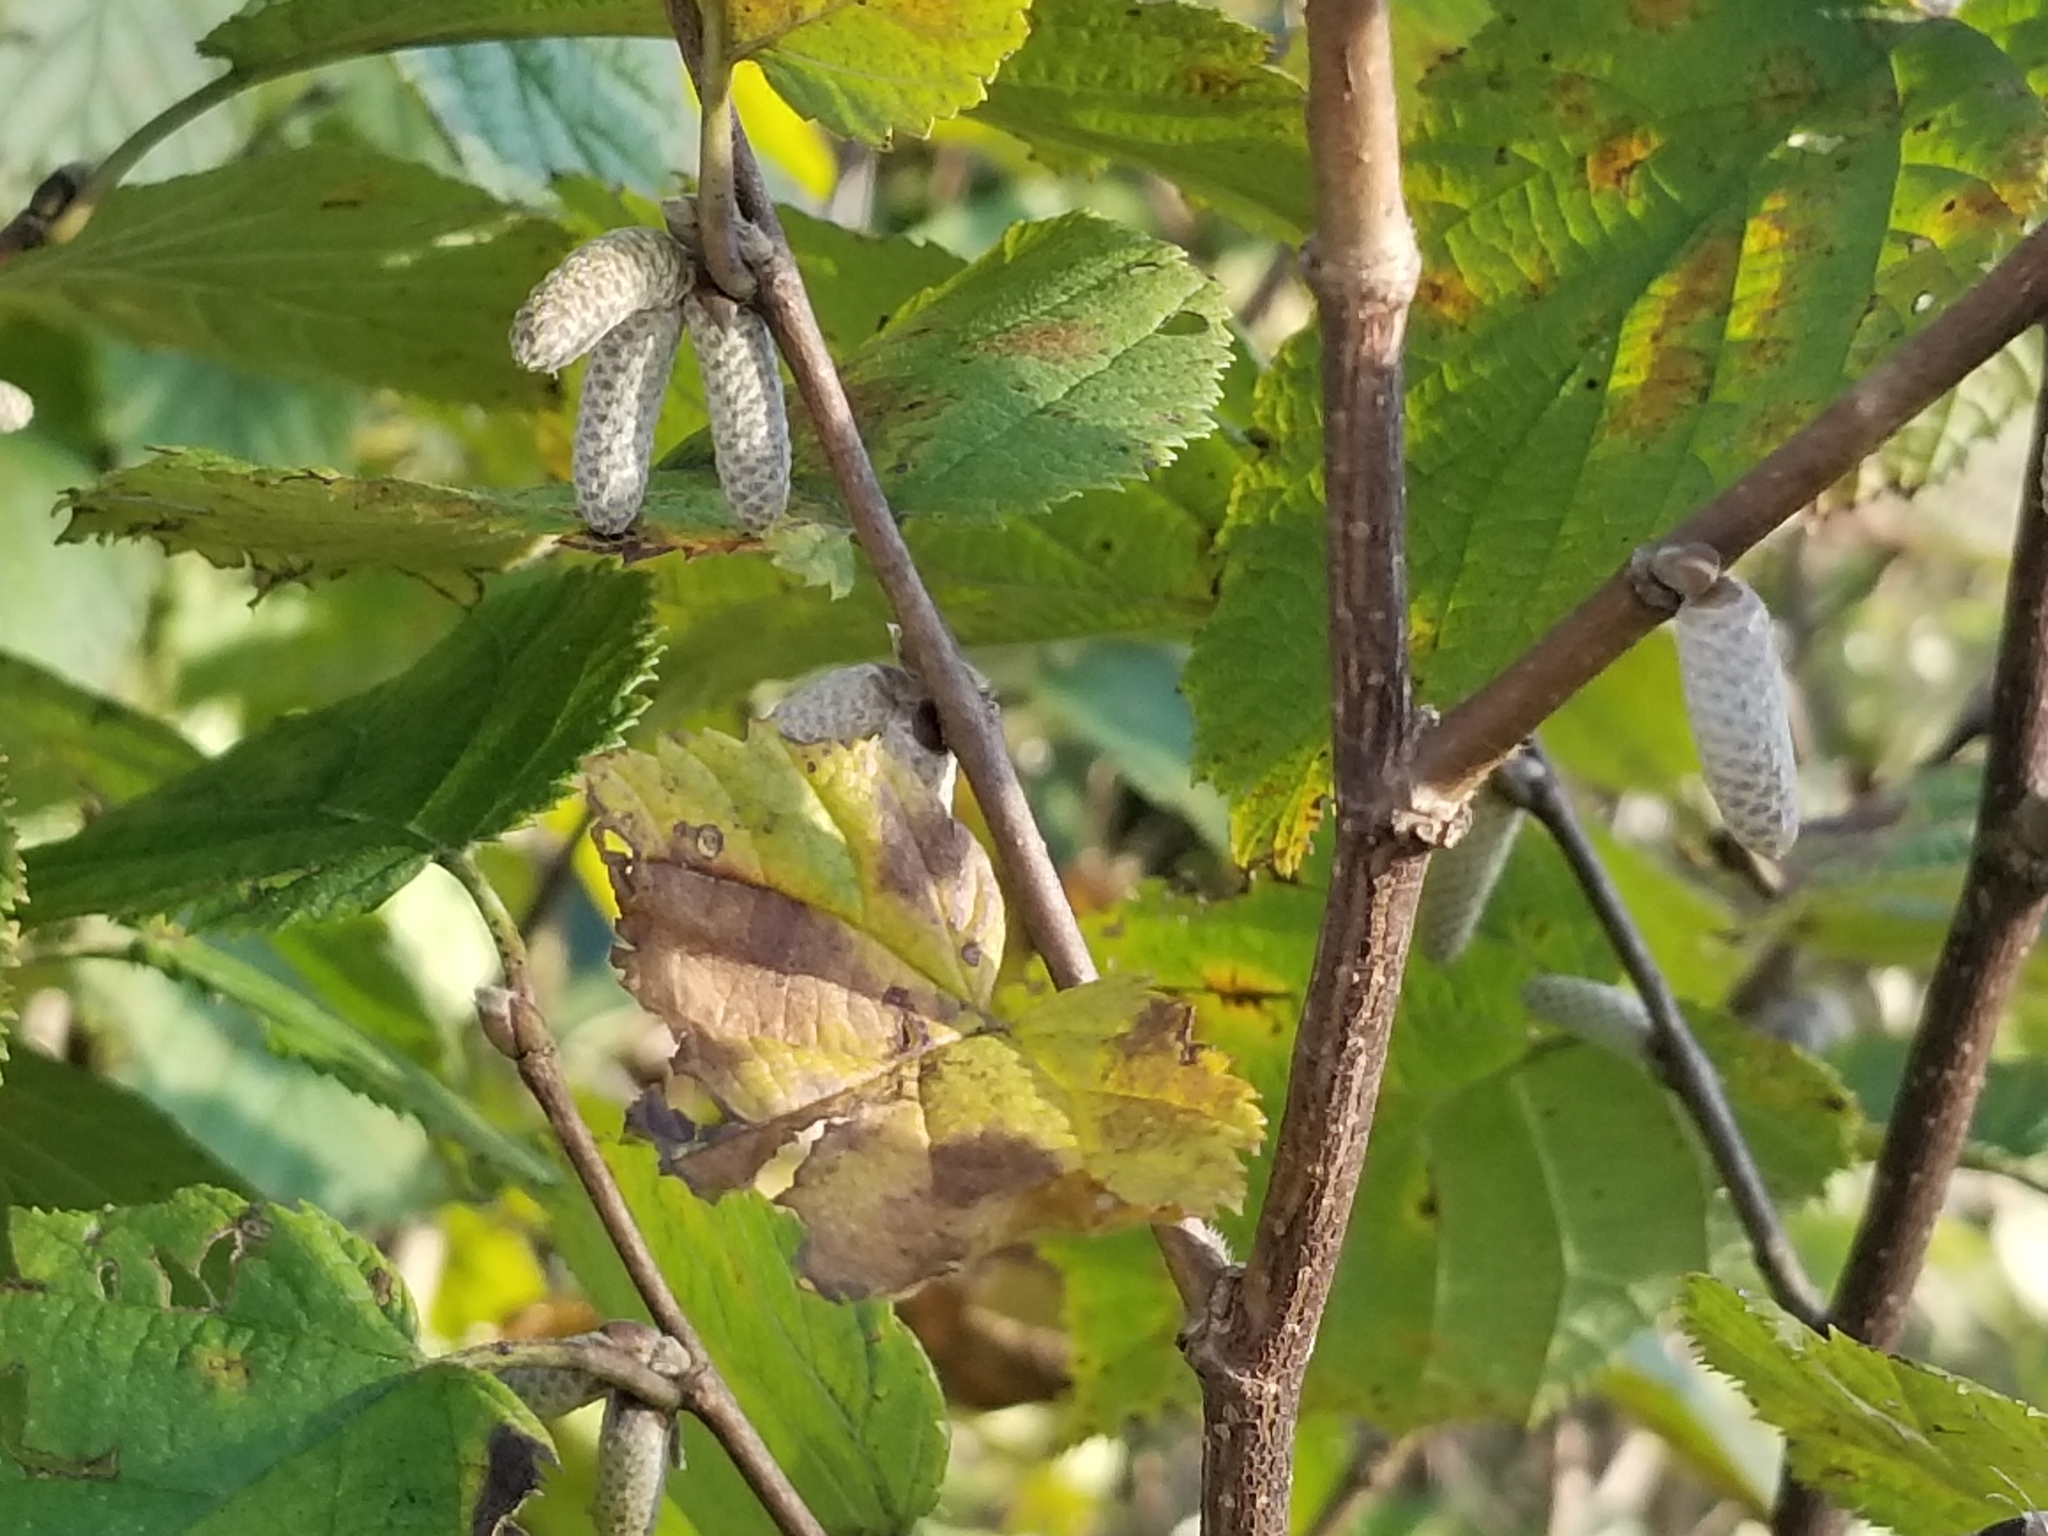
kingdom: Plantae
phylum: Tracheophyta
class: Magnoliopsida
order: Fagales
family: Betulaceae
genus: Corylus
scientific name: Corylus cornuta
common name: Beaked hazel
